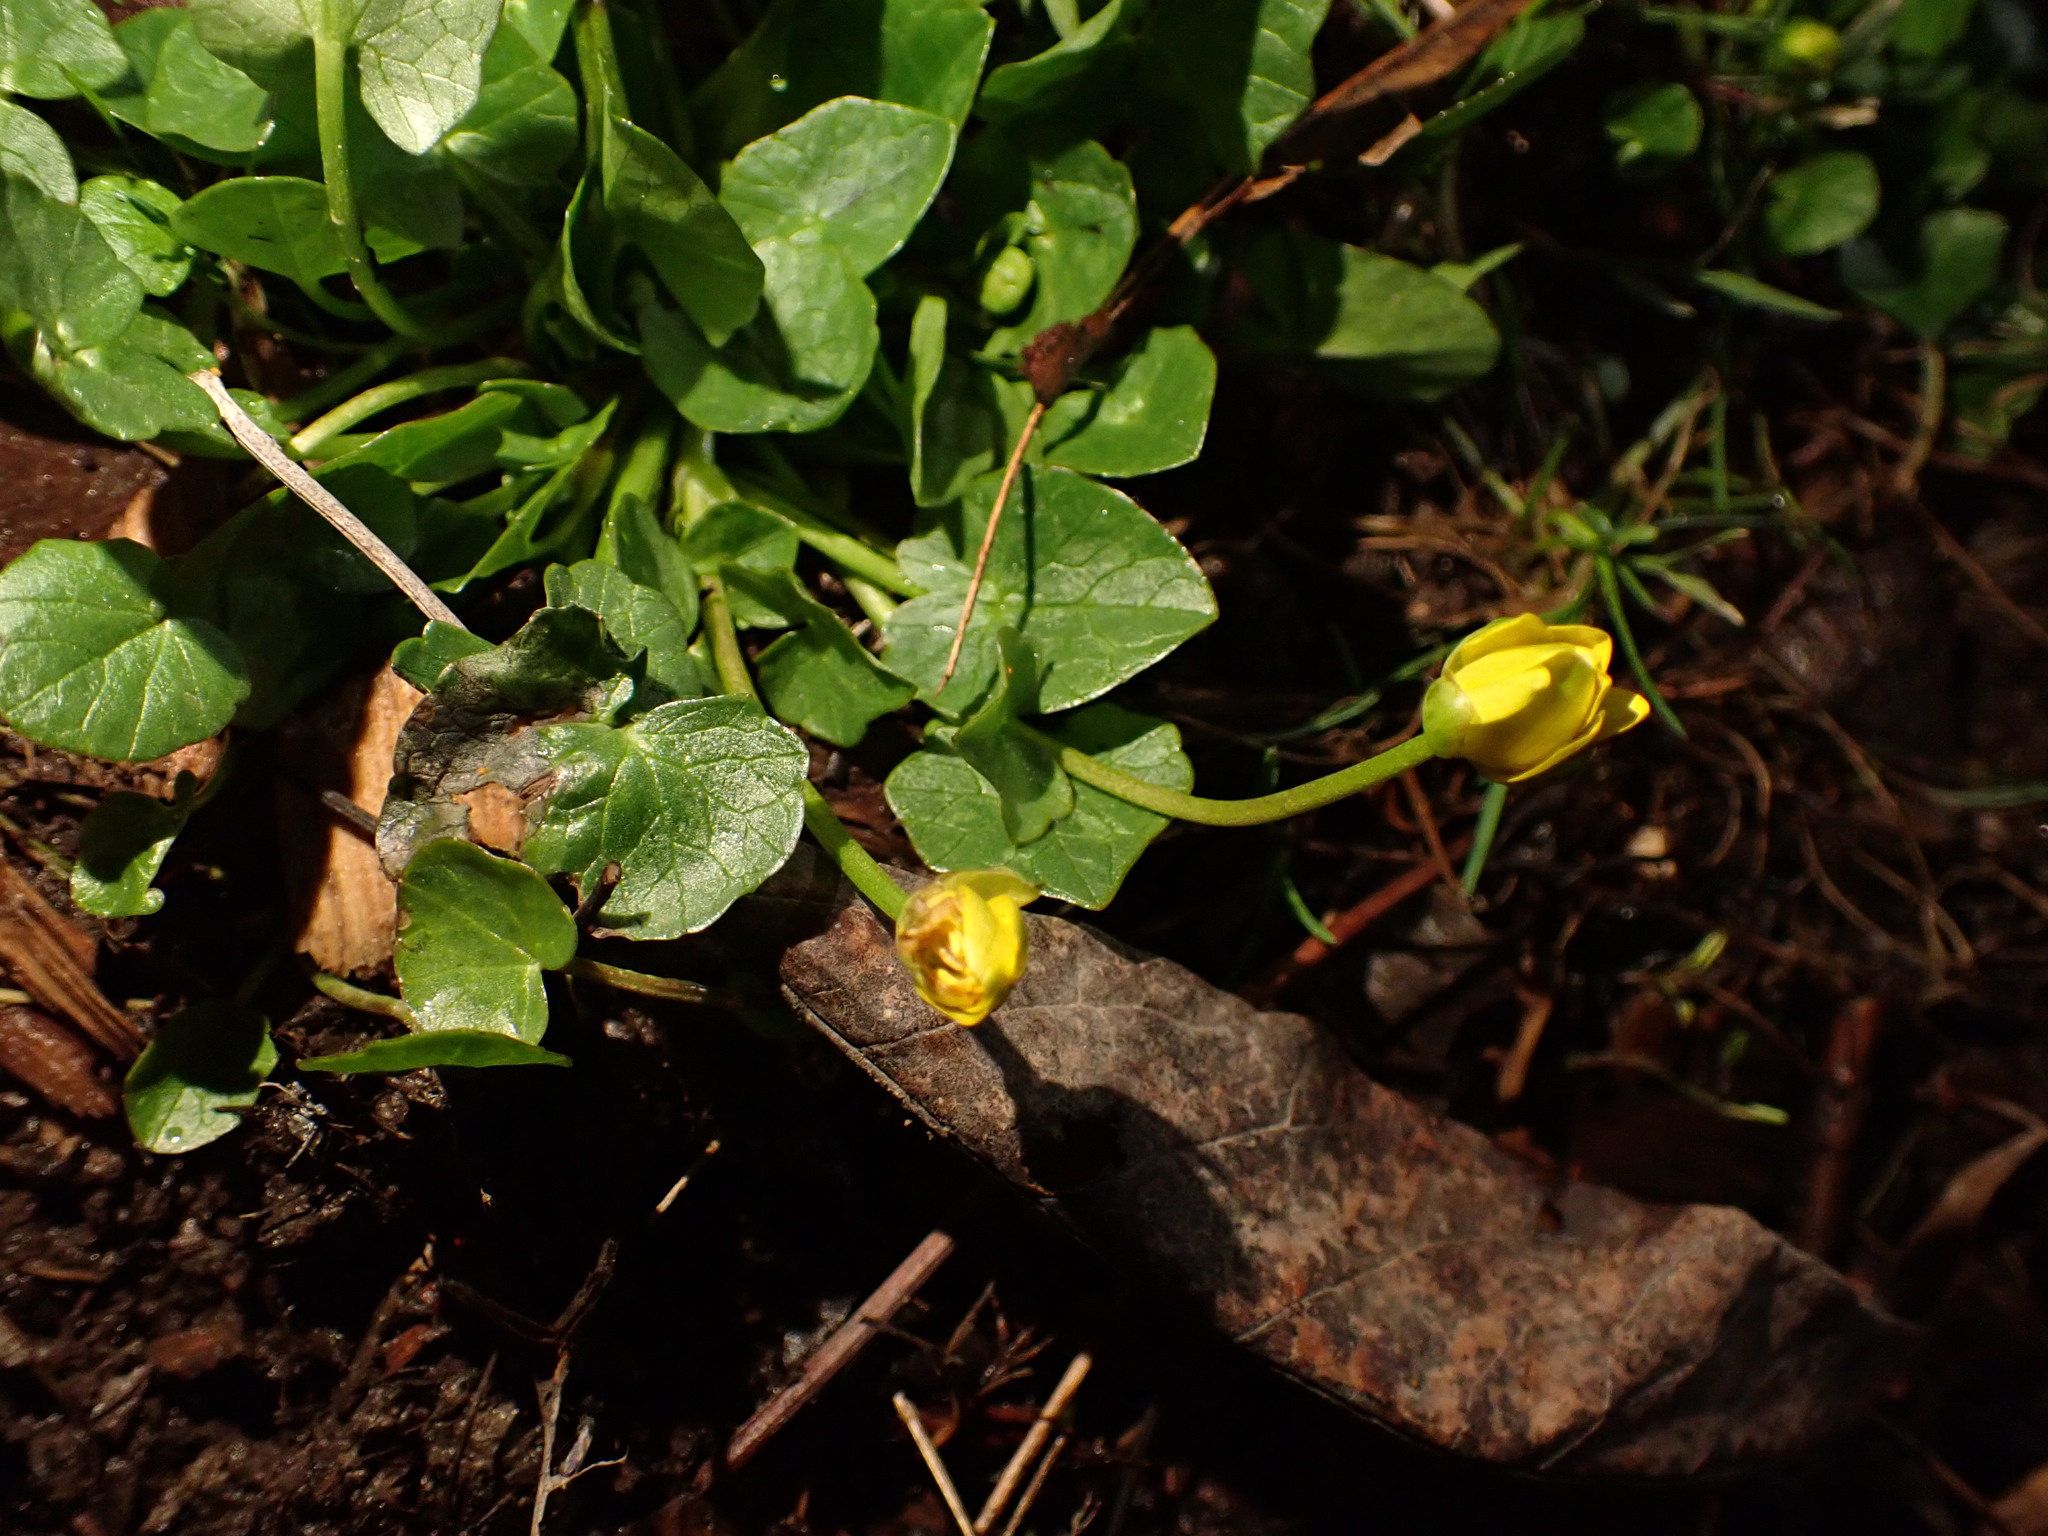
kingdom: Plantae
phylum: Tracheophyta
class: Magnoliopsida
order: Ranunculales
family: Ranunculaceae
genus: Ficaria
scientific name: Ficaria verna
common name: Lesser celandine
